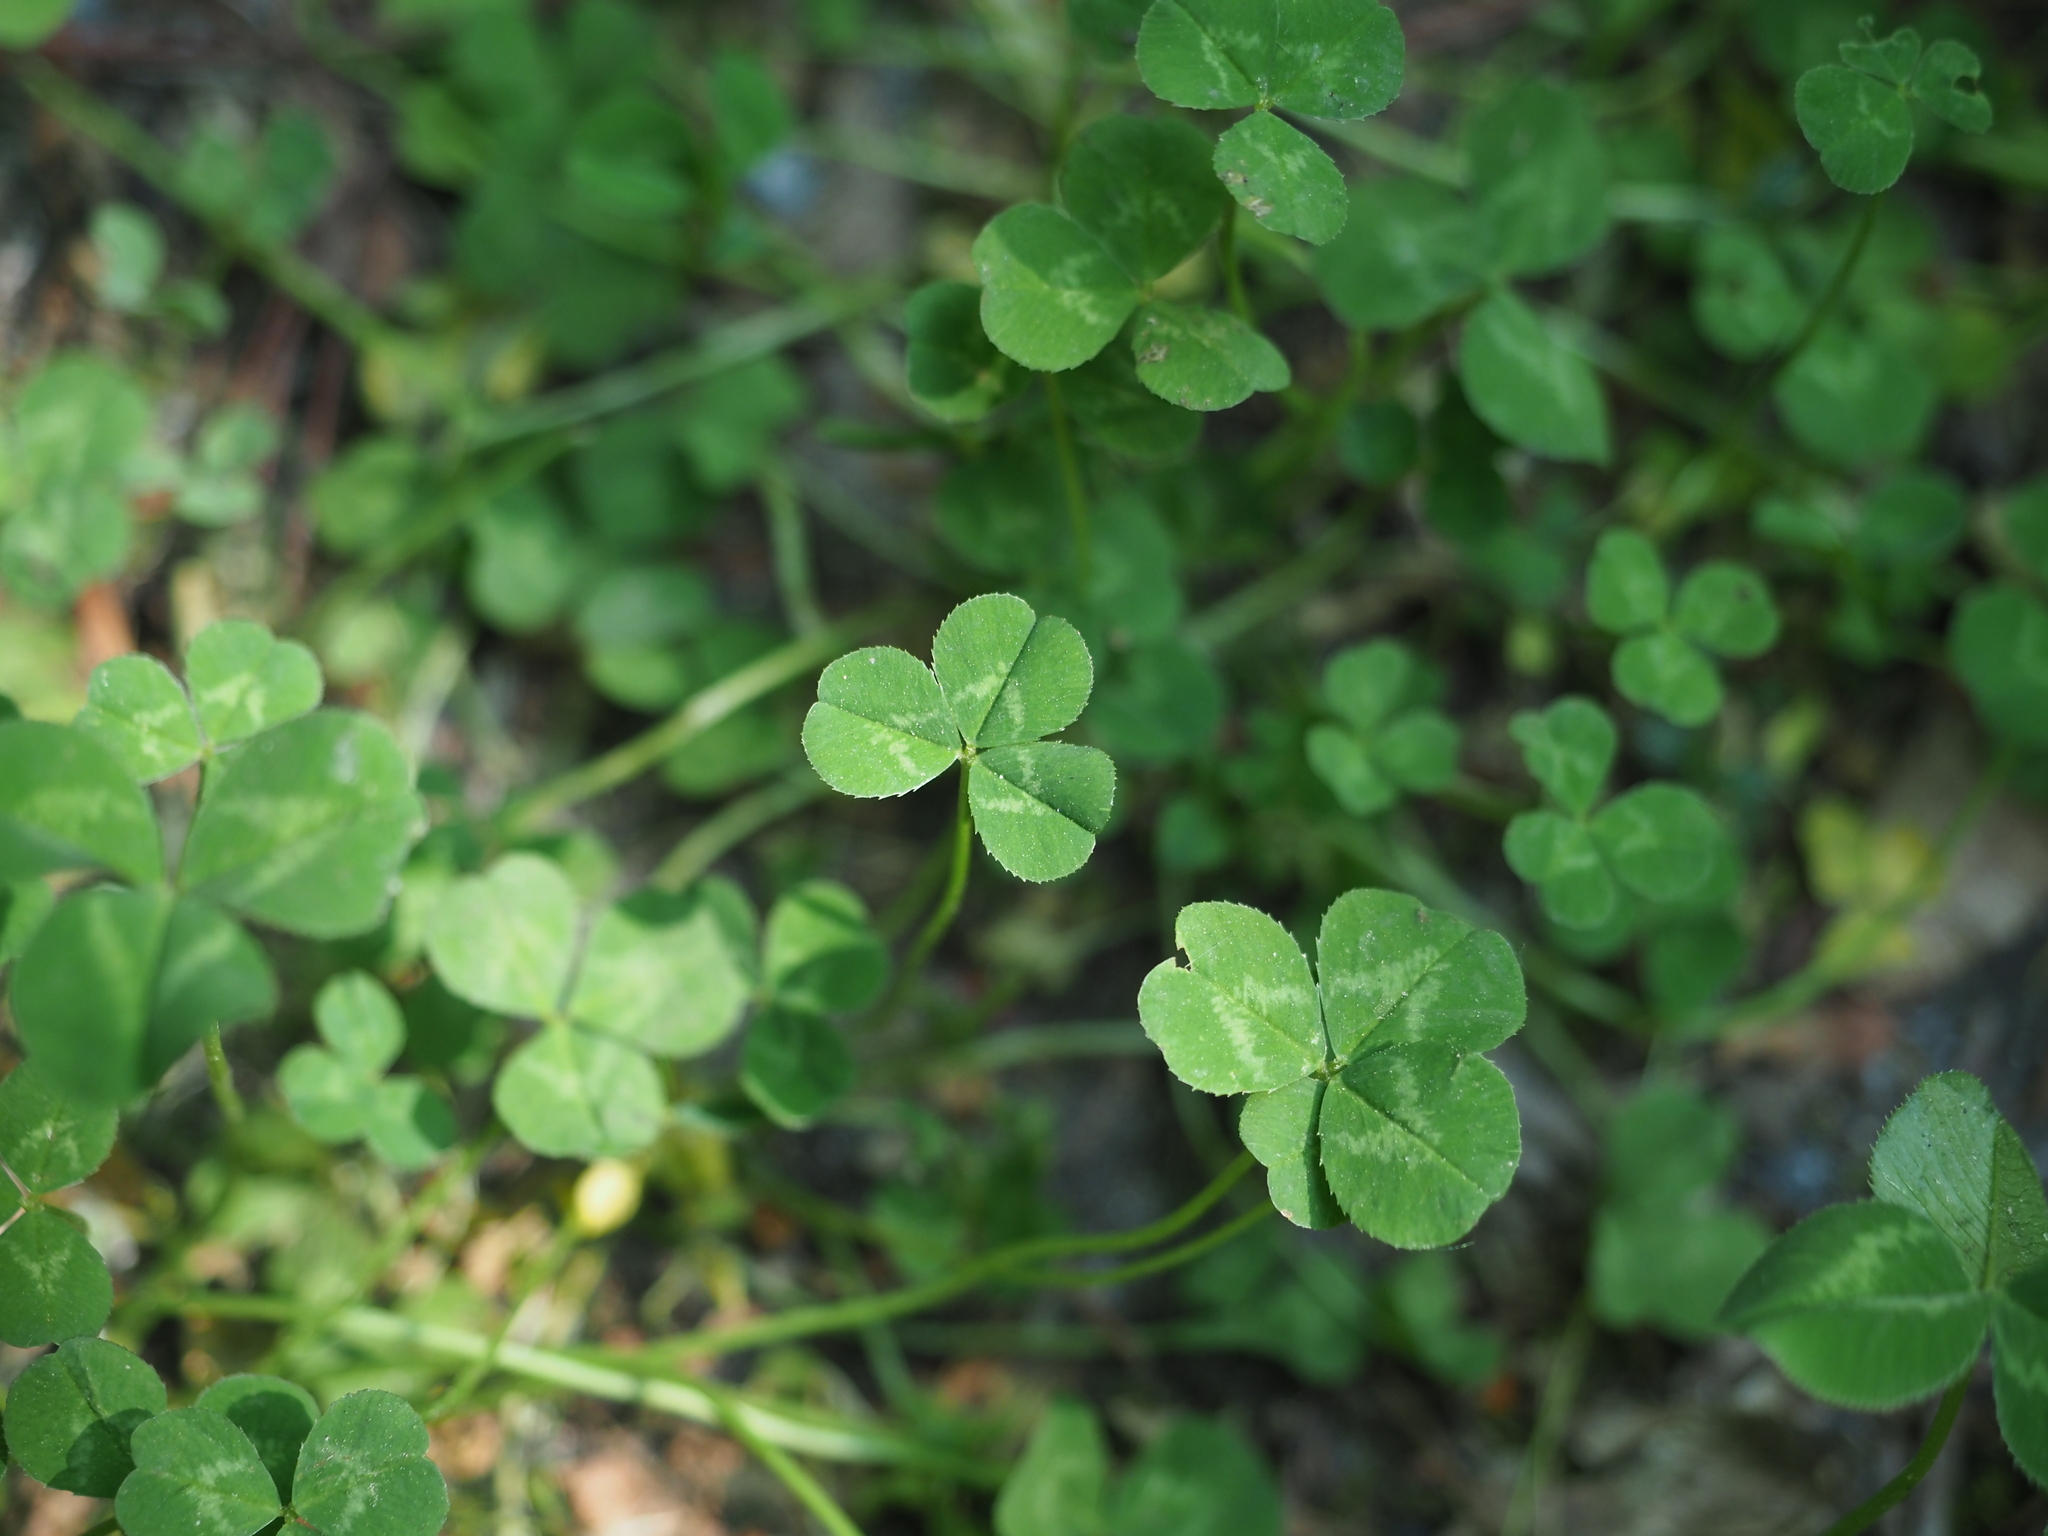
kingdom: Plantae
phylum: Tracheophyta
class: Magnoliopsida
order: Fabales
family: Fabaceae
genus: Trifolium
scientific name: Trifolium repens
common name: White clover
